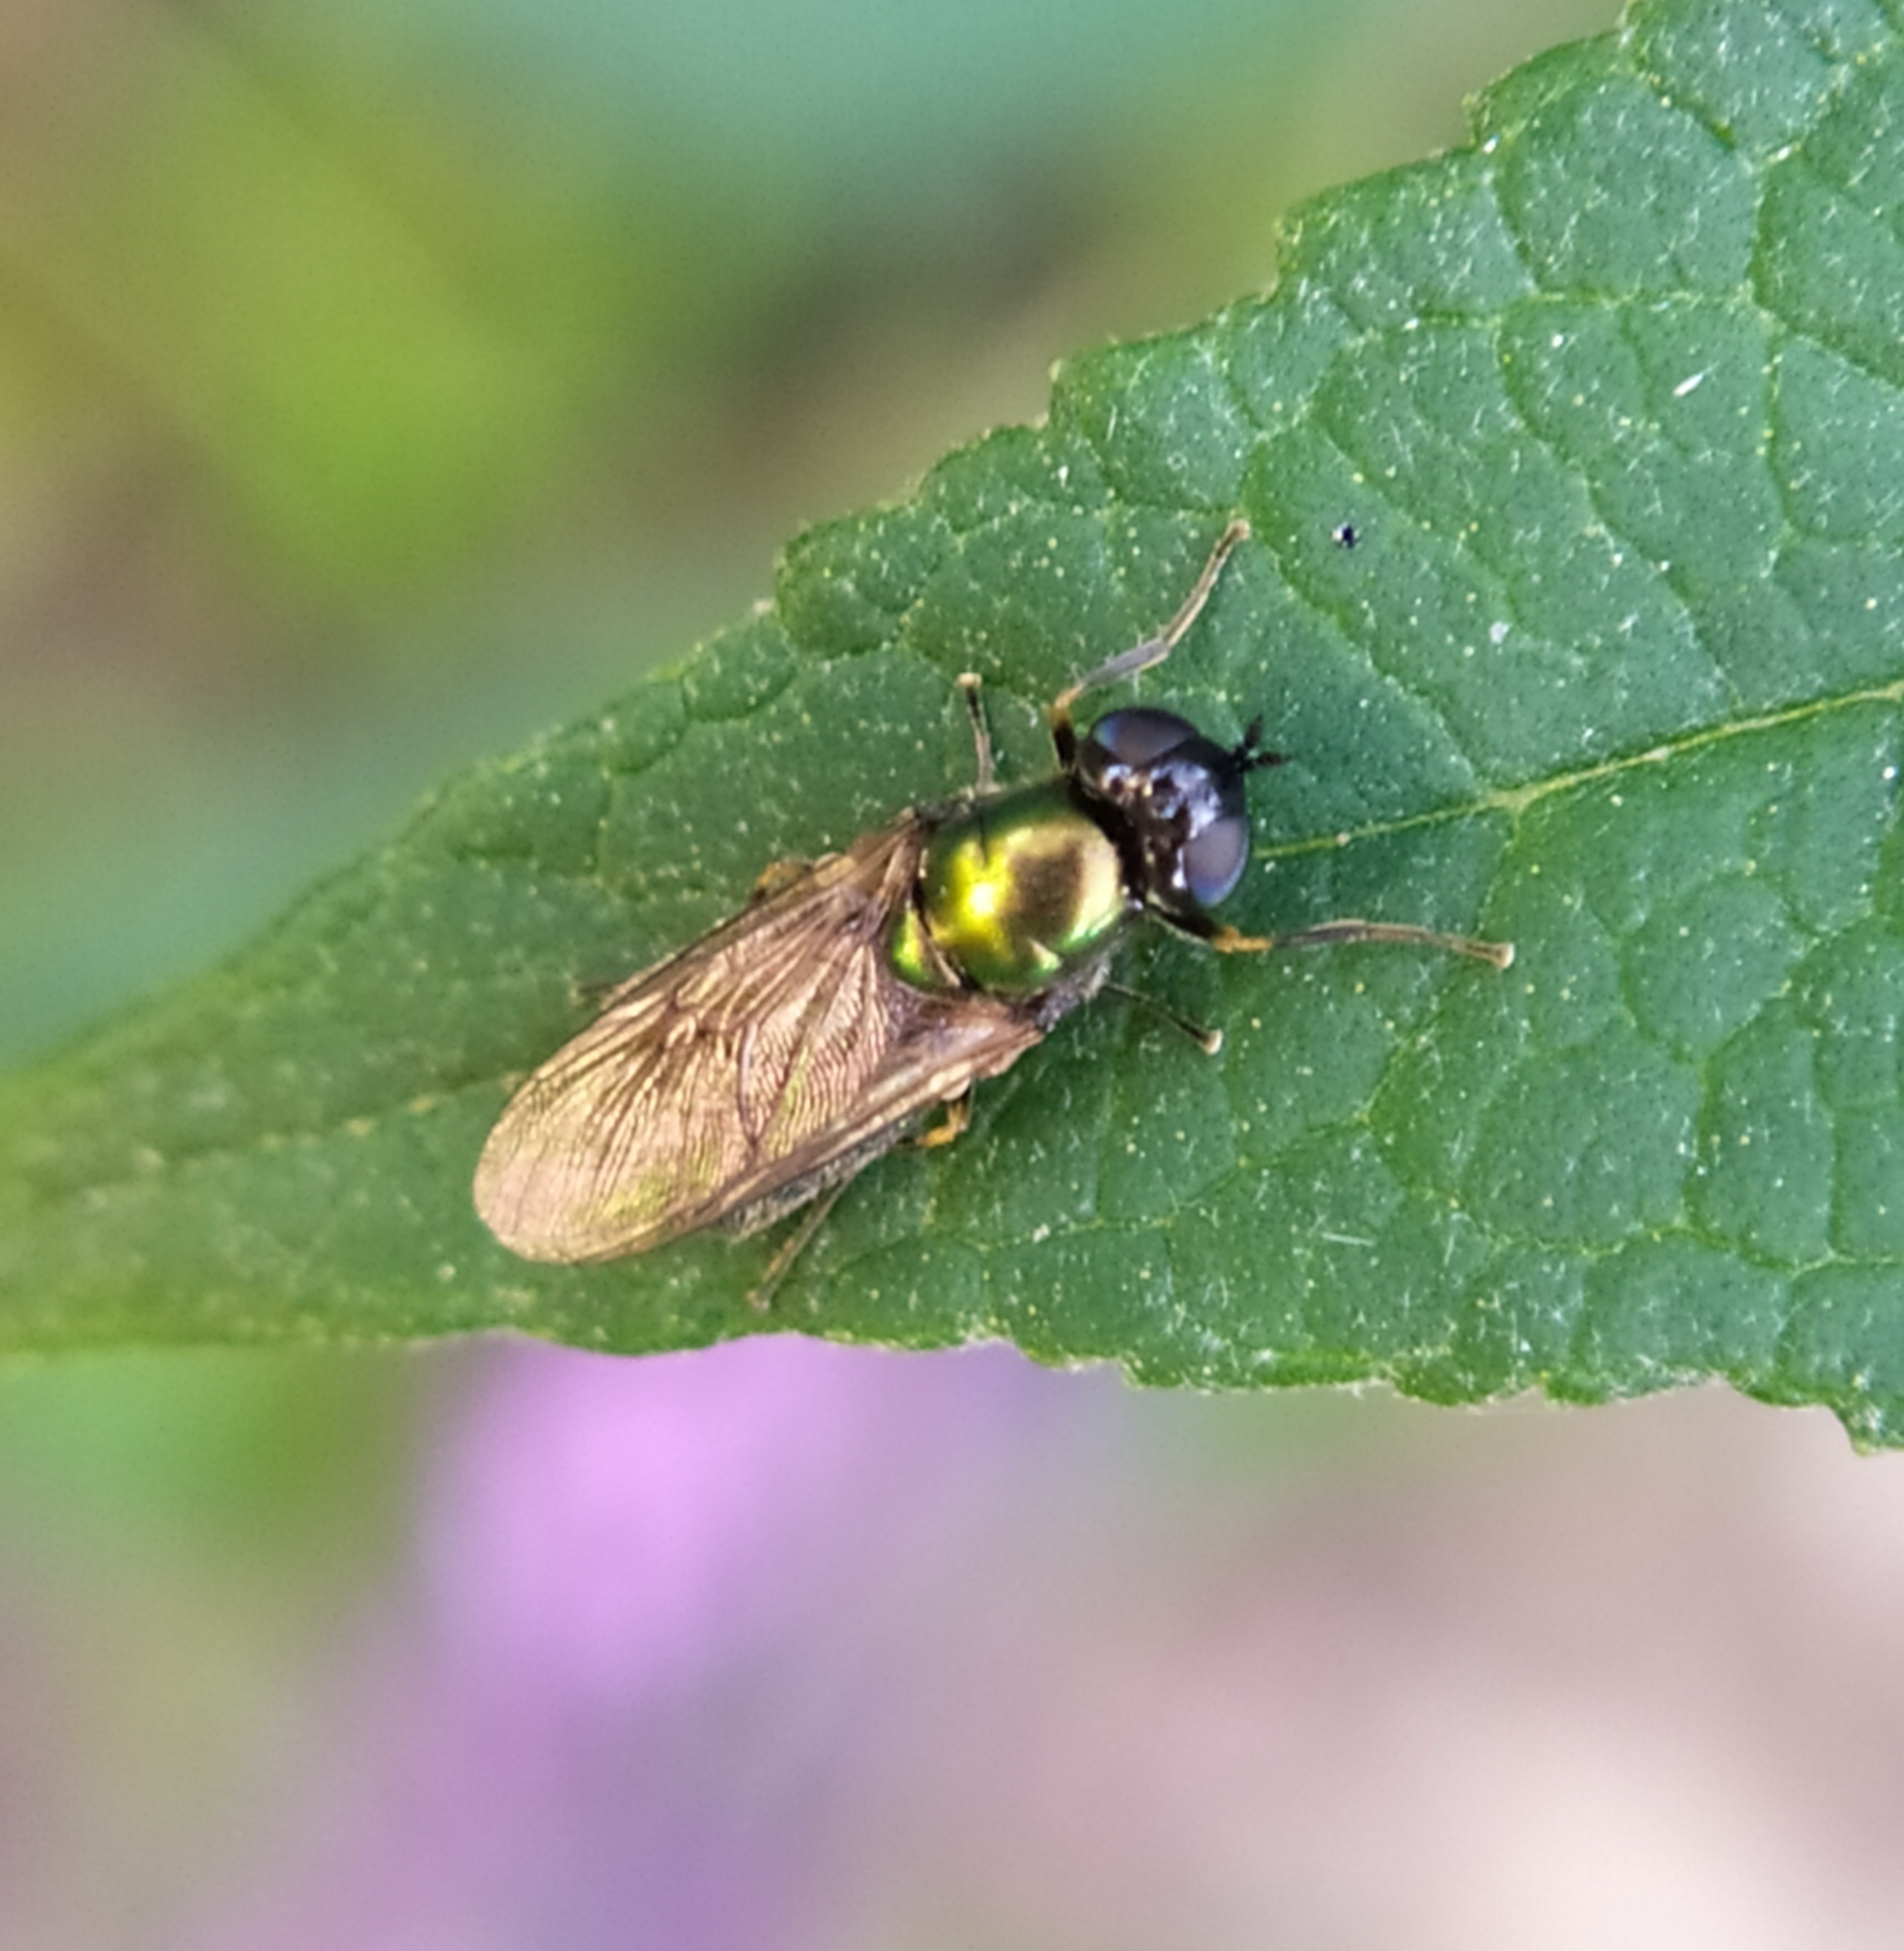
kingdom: Animalia
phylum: Arthropoda
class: Insecta
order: Diptera
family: Stratiomyidae
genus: Chloromyia
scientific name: Chloromyia formosa
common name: Soldier fly
